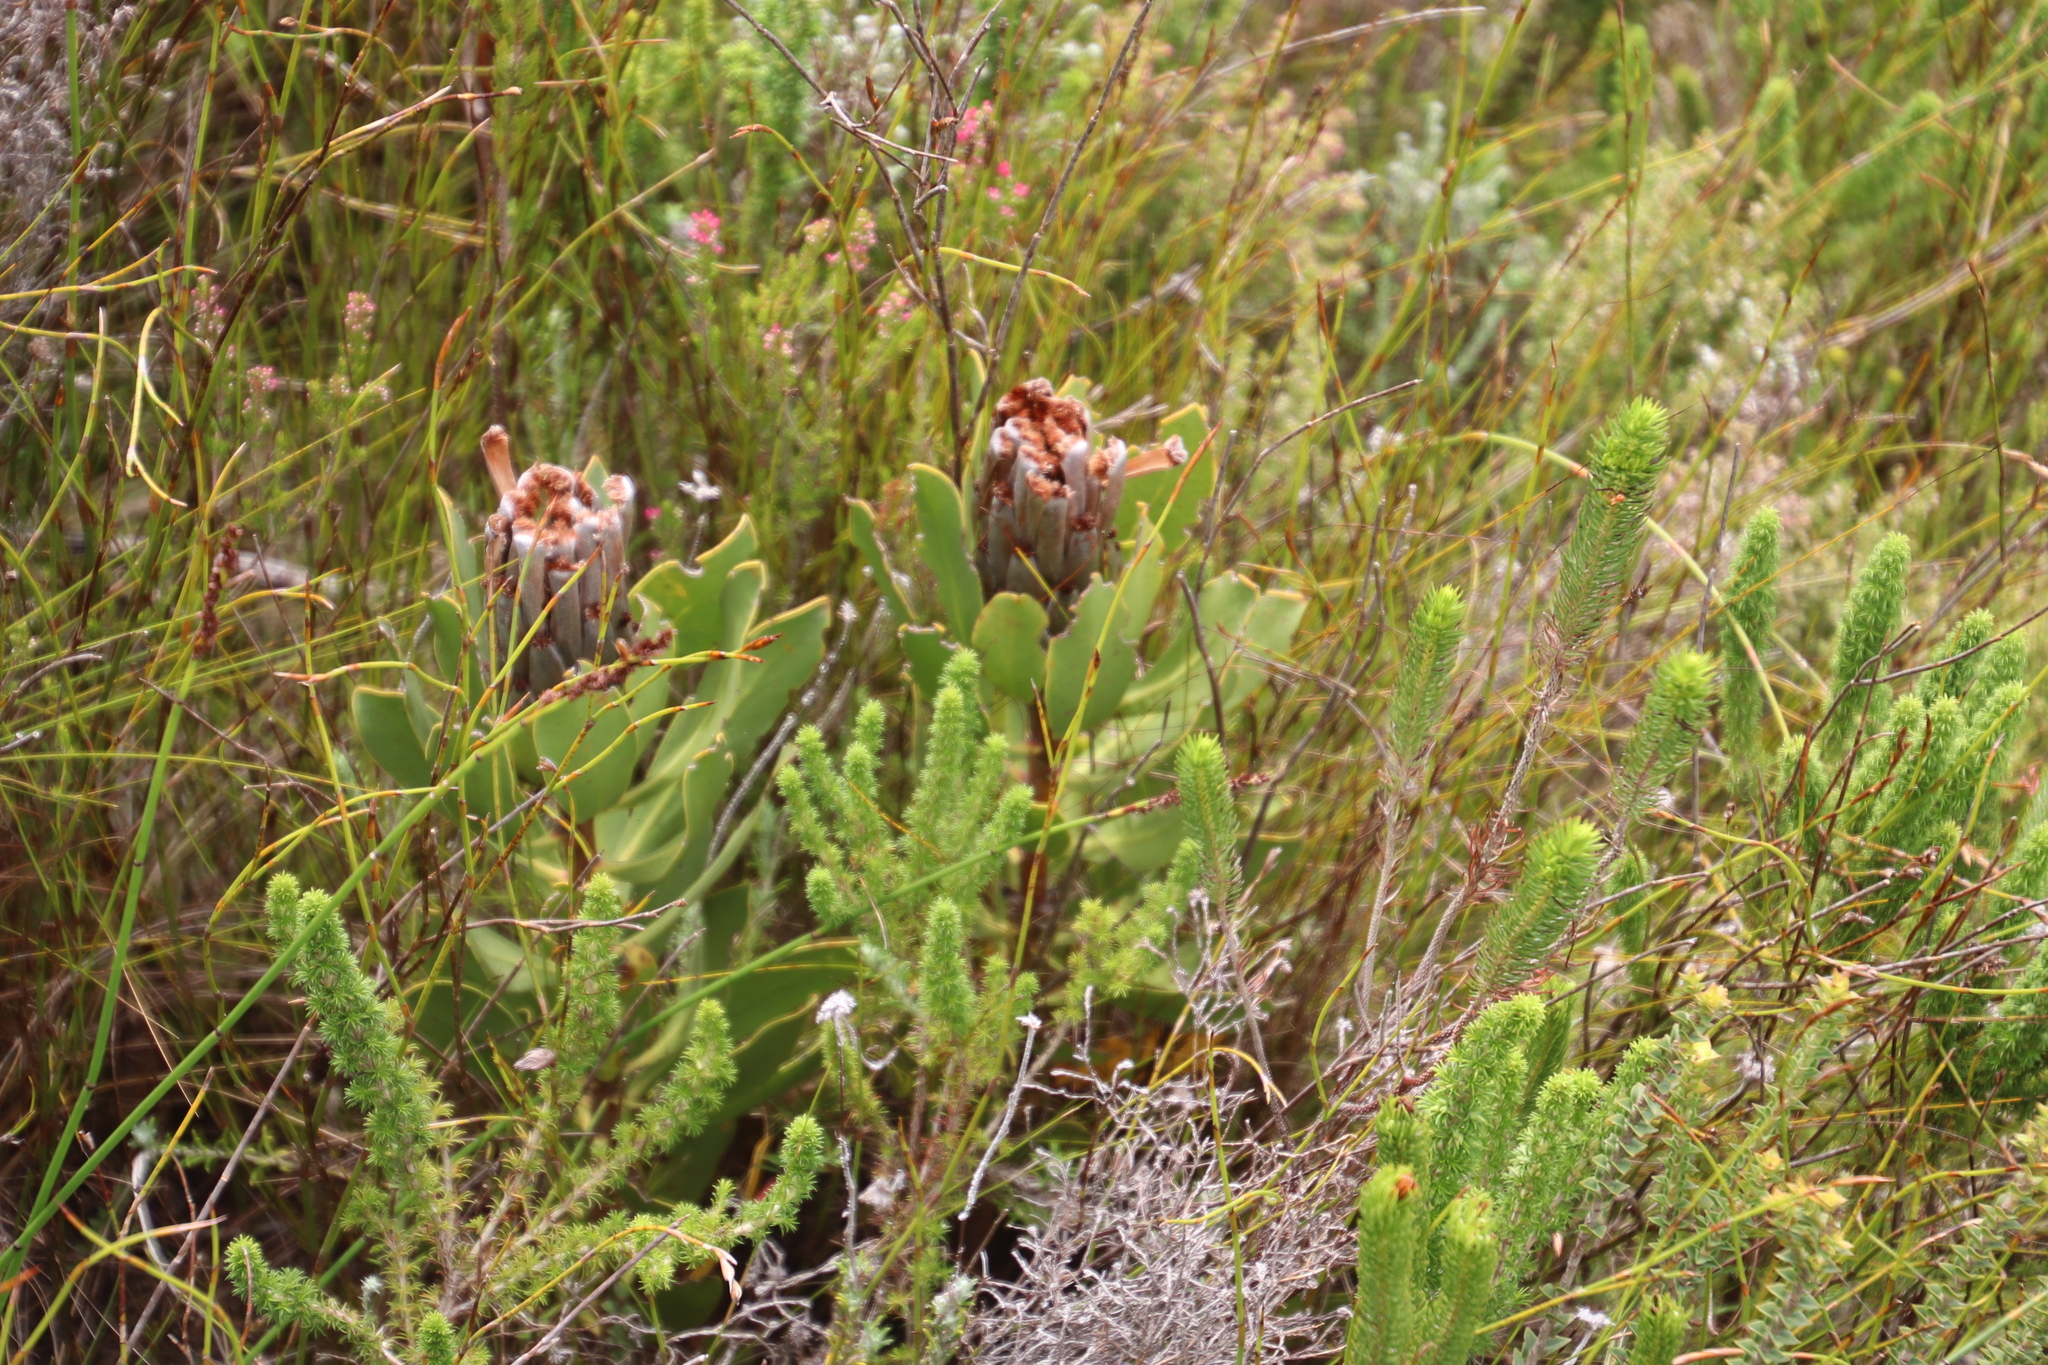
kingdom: Plantae
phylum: Tracheophyta
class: Magnoliopsida
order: Proteales
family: Proteaceae
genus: Protea
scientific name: Protea speciosa
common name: Brown-beard sugarbush
